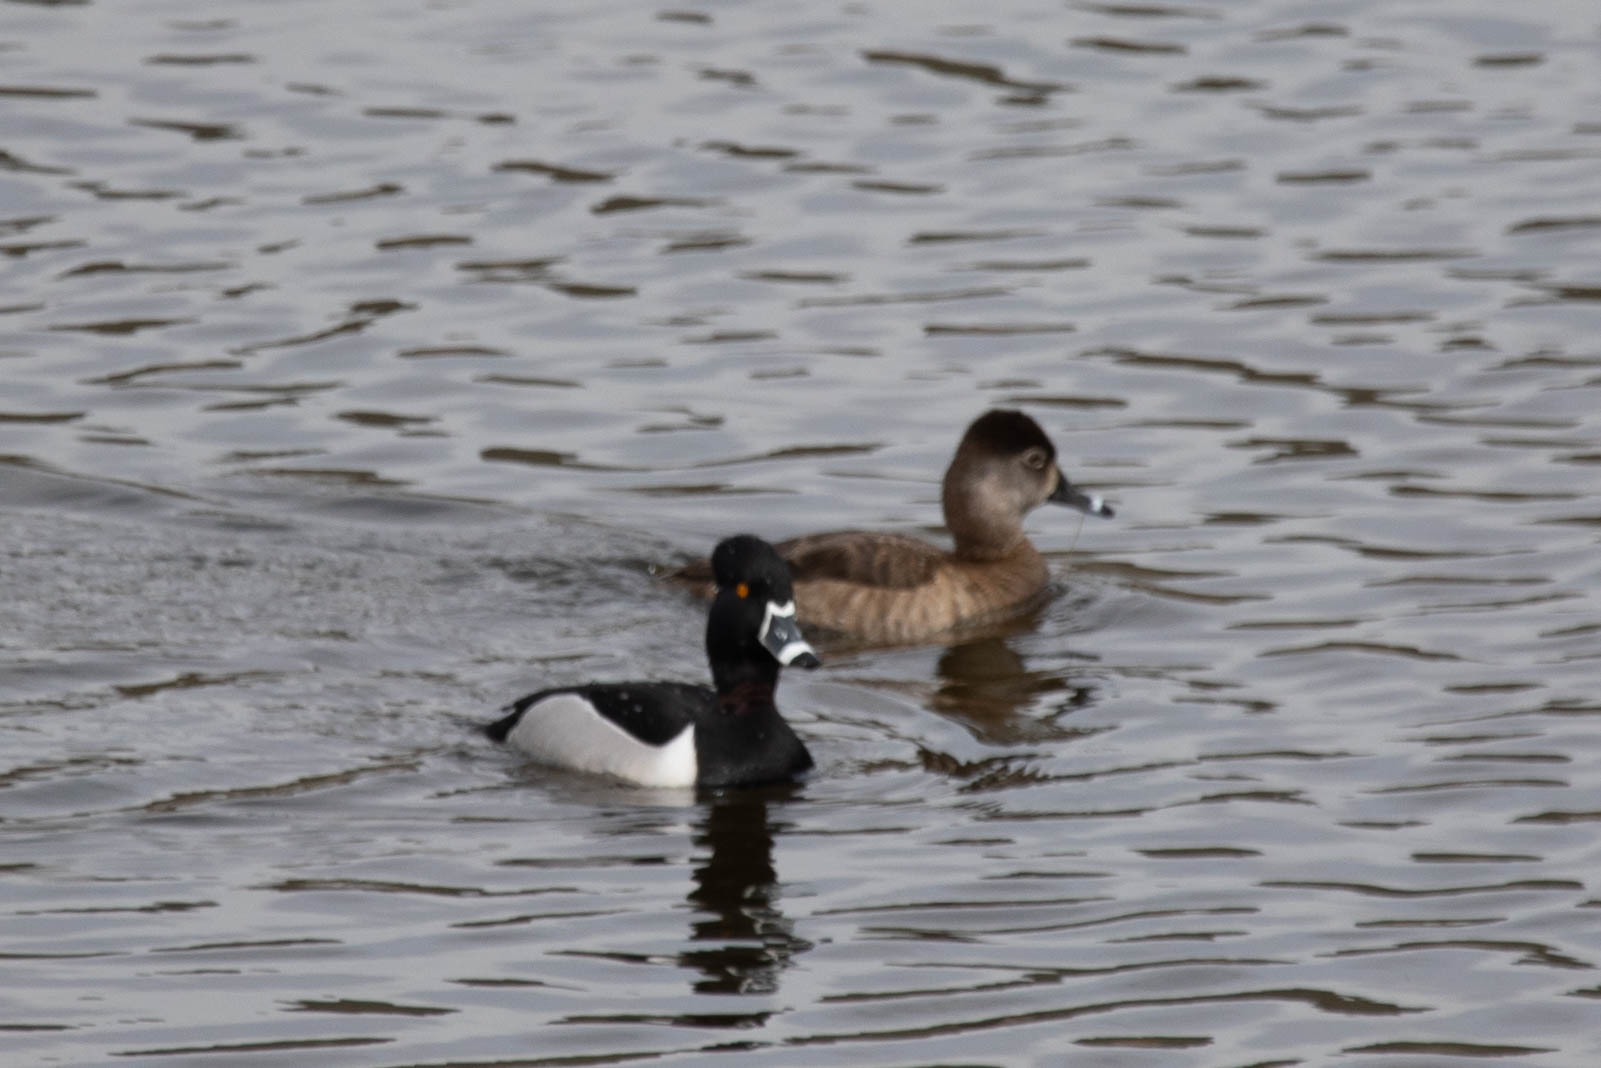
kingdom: Animalia
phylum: Chordata
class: Aves
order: Anseriformes
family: Anatidae
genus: Aythya
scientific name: Aythya collaris
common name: Ring-necked duck
